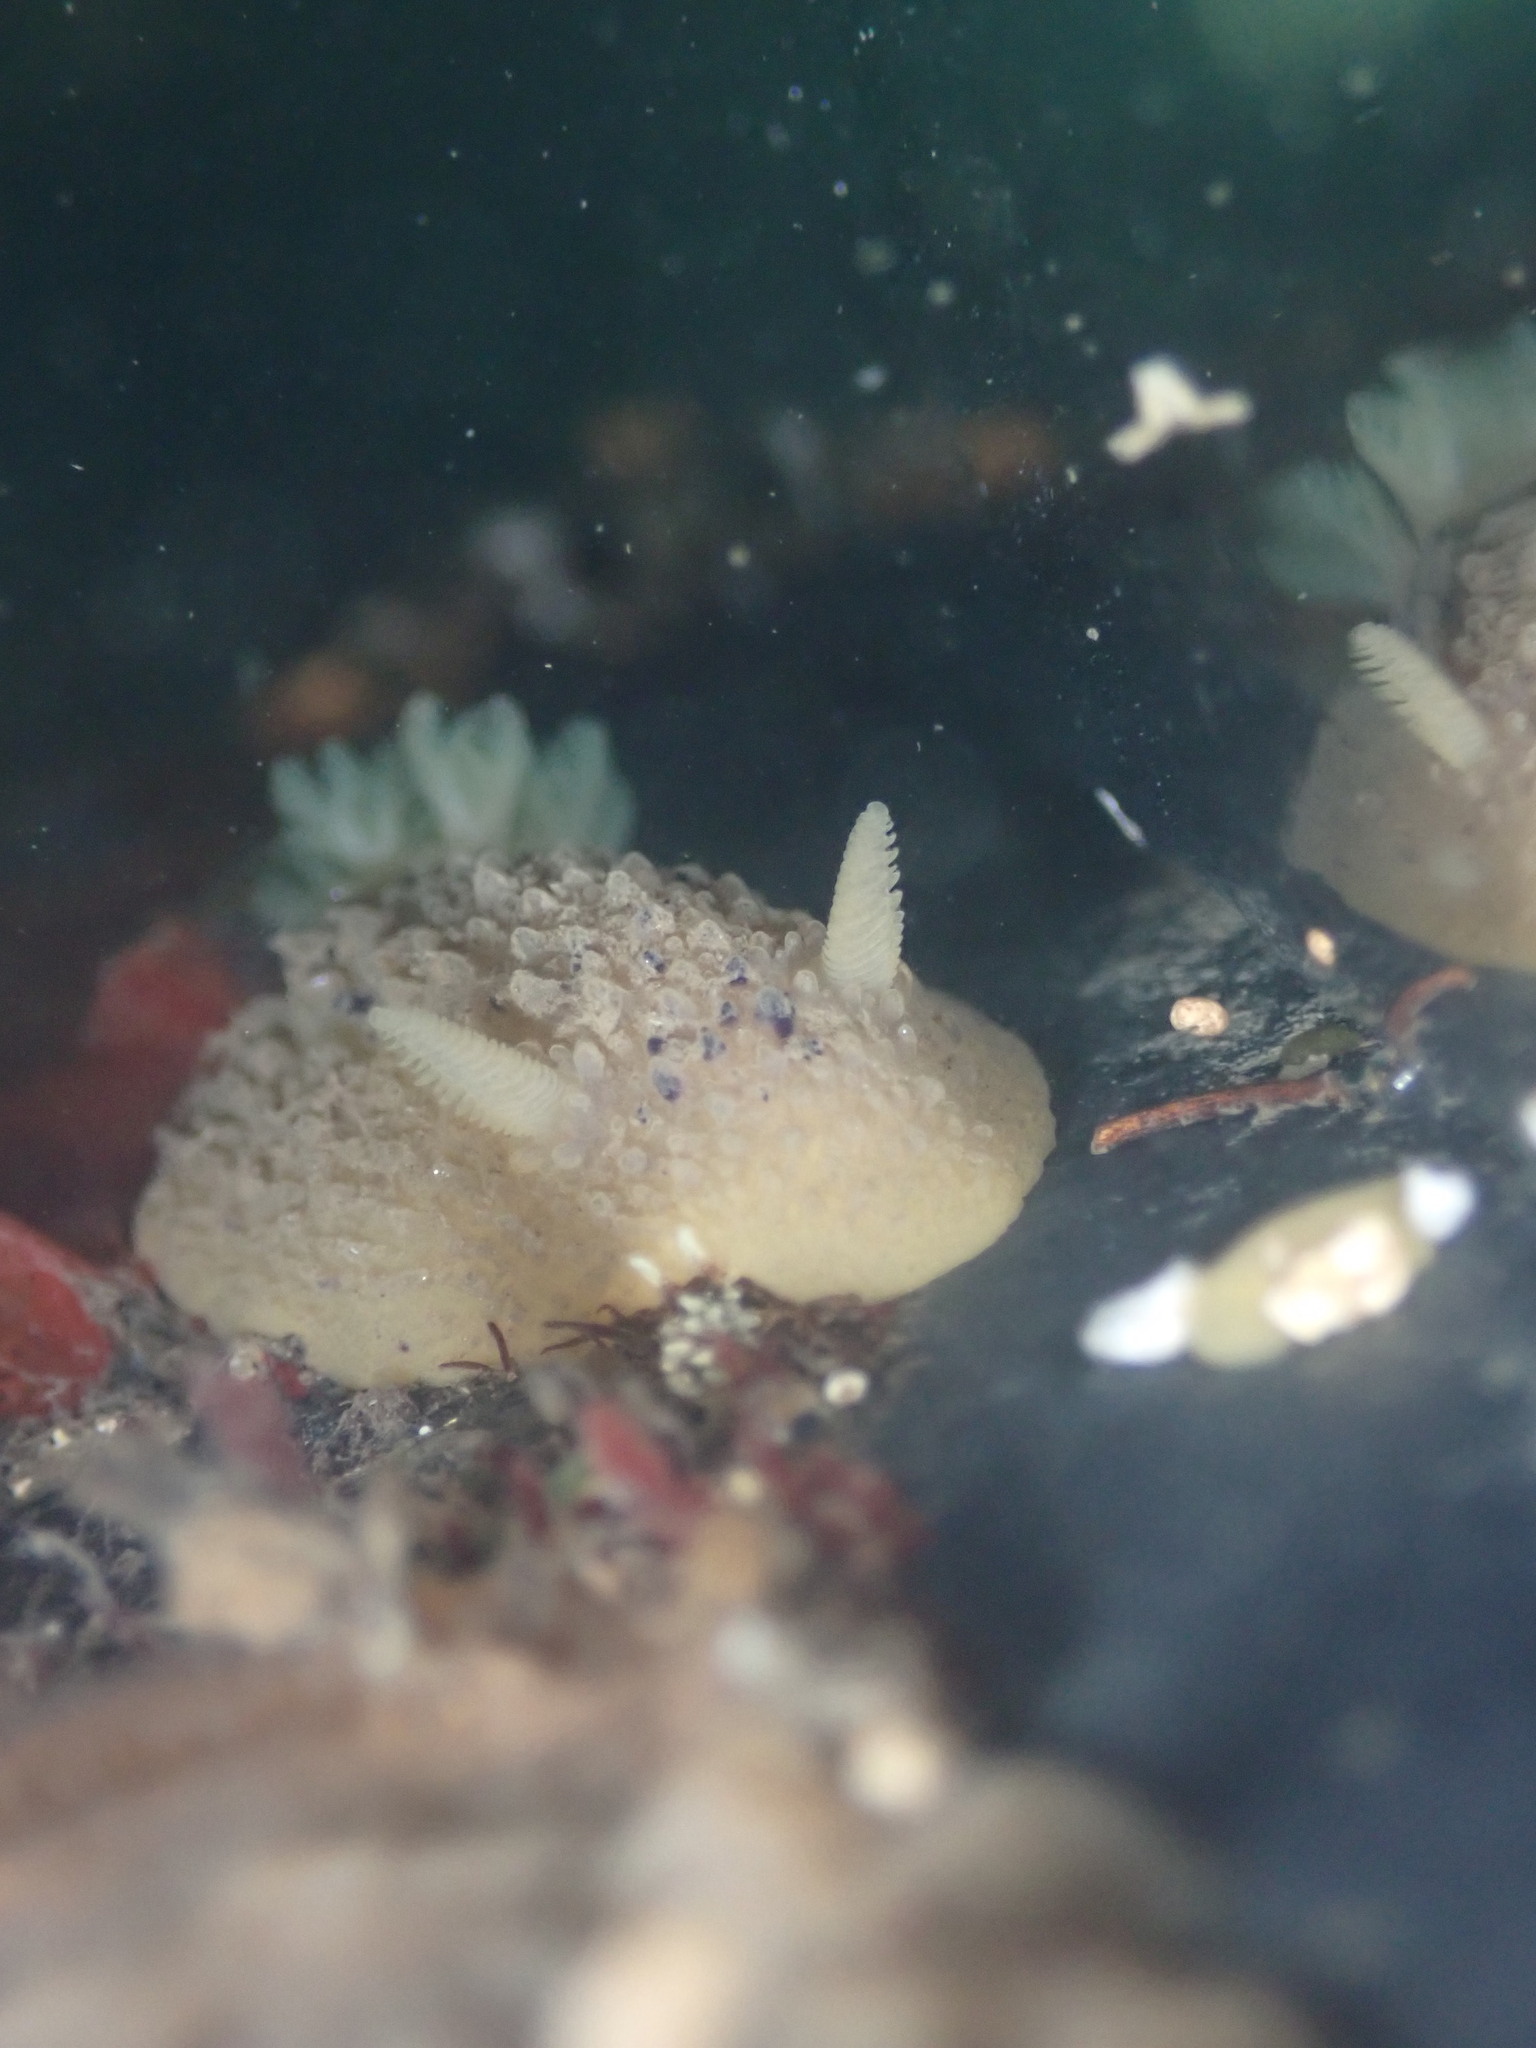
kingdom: Animalia
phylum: Mollusca
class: Gastropoda
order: Nudibranchia
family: Dorididae
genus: Doris
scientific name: Doris montereyensis
